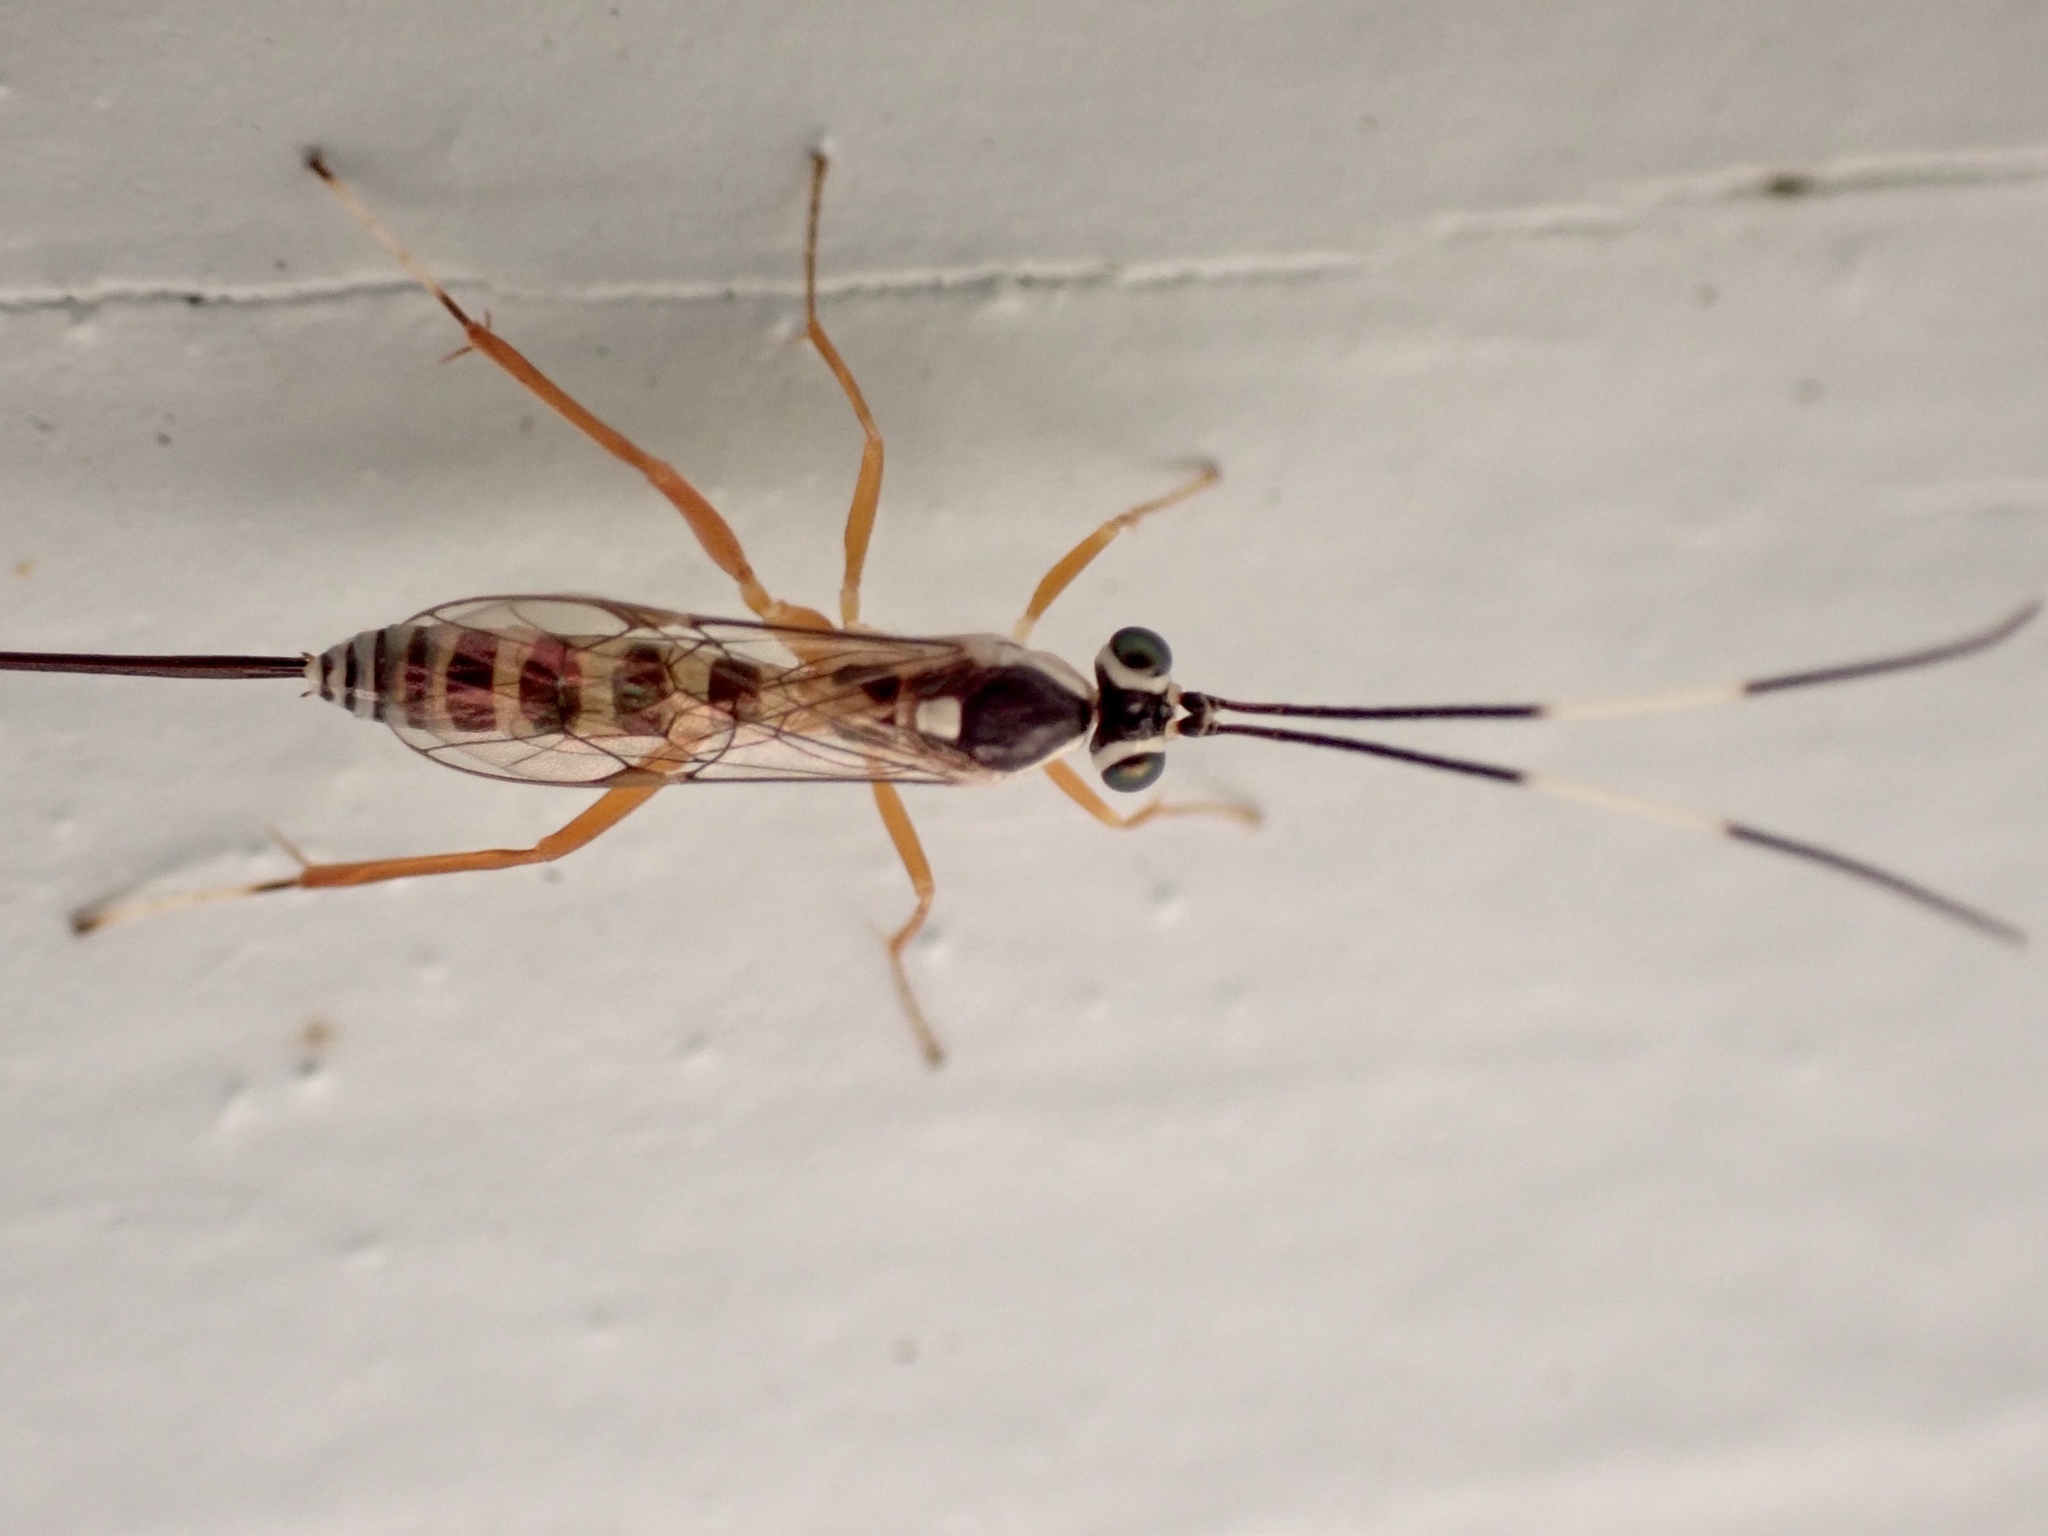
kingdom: Animalia
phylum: Arthropoda
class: Insecta
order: Hymenoptera
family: Ichneumonidae
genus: Sphelodon
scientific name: Sphelodon phoxopteridis
